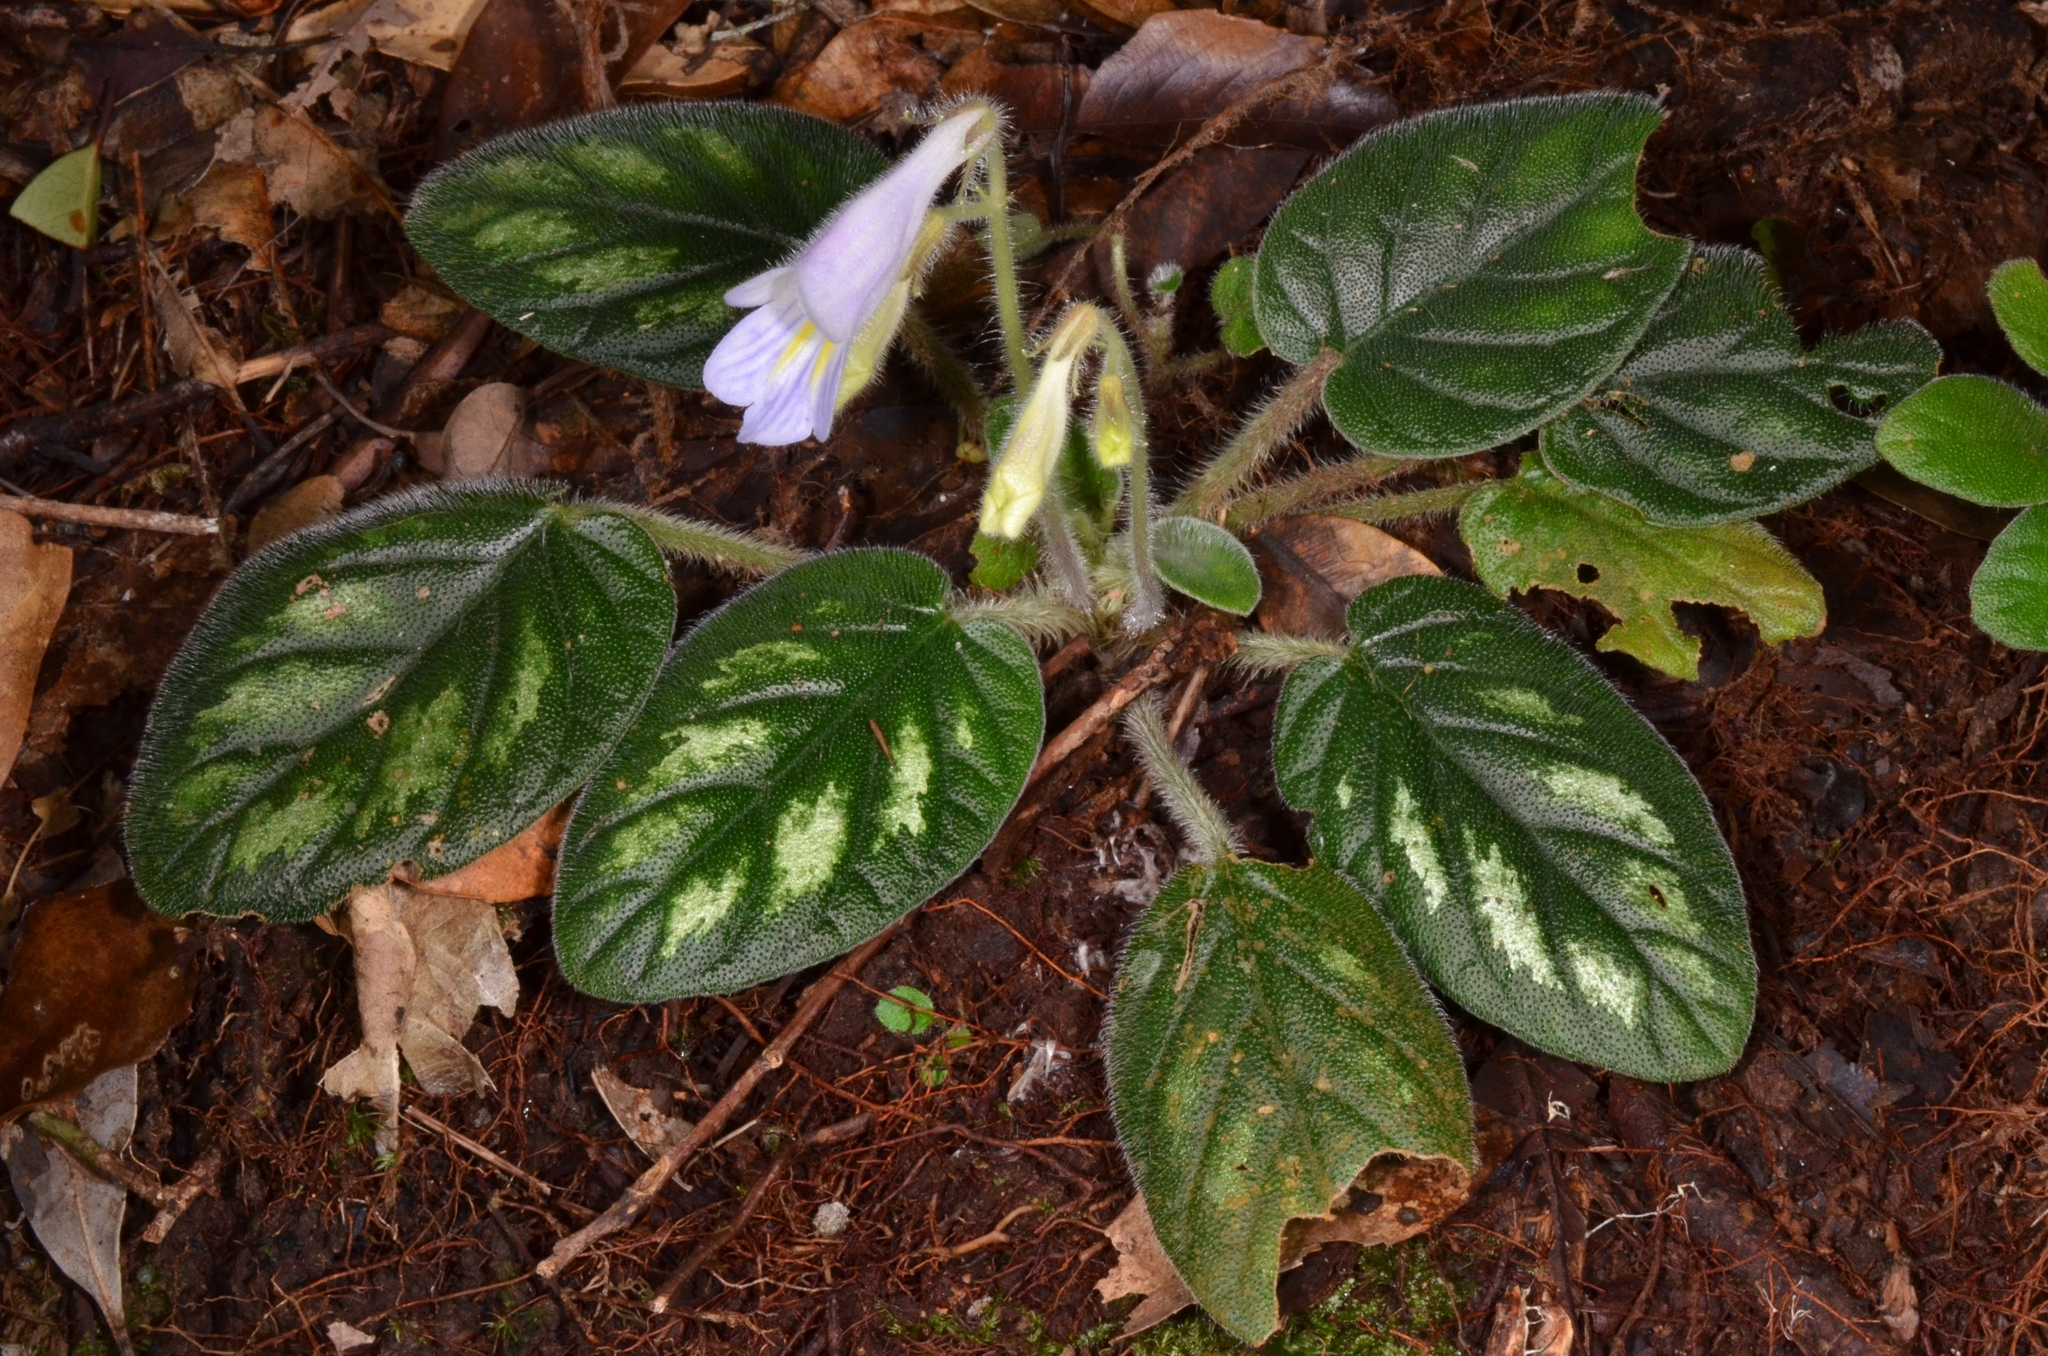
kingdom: Plantae
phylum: Tracheophyta
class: Magnoliopsida
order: Lamiales
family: Gesneriaceae
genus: Primulina
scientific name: Primulina annamensis
